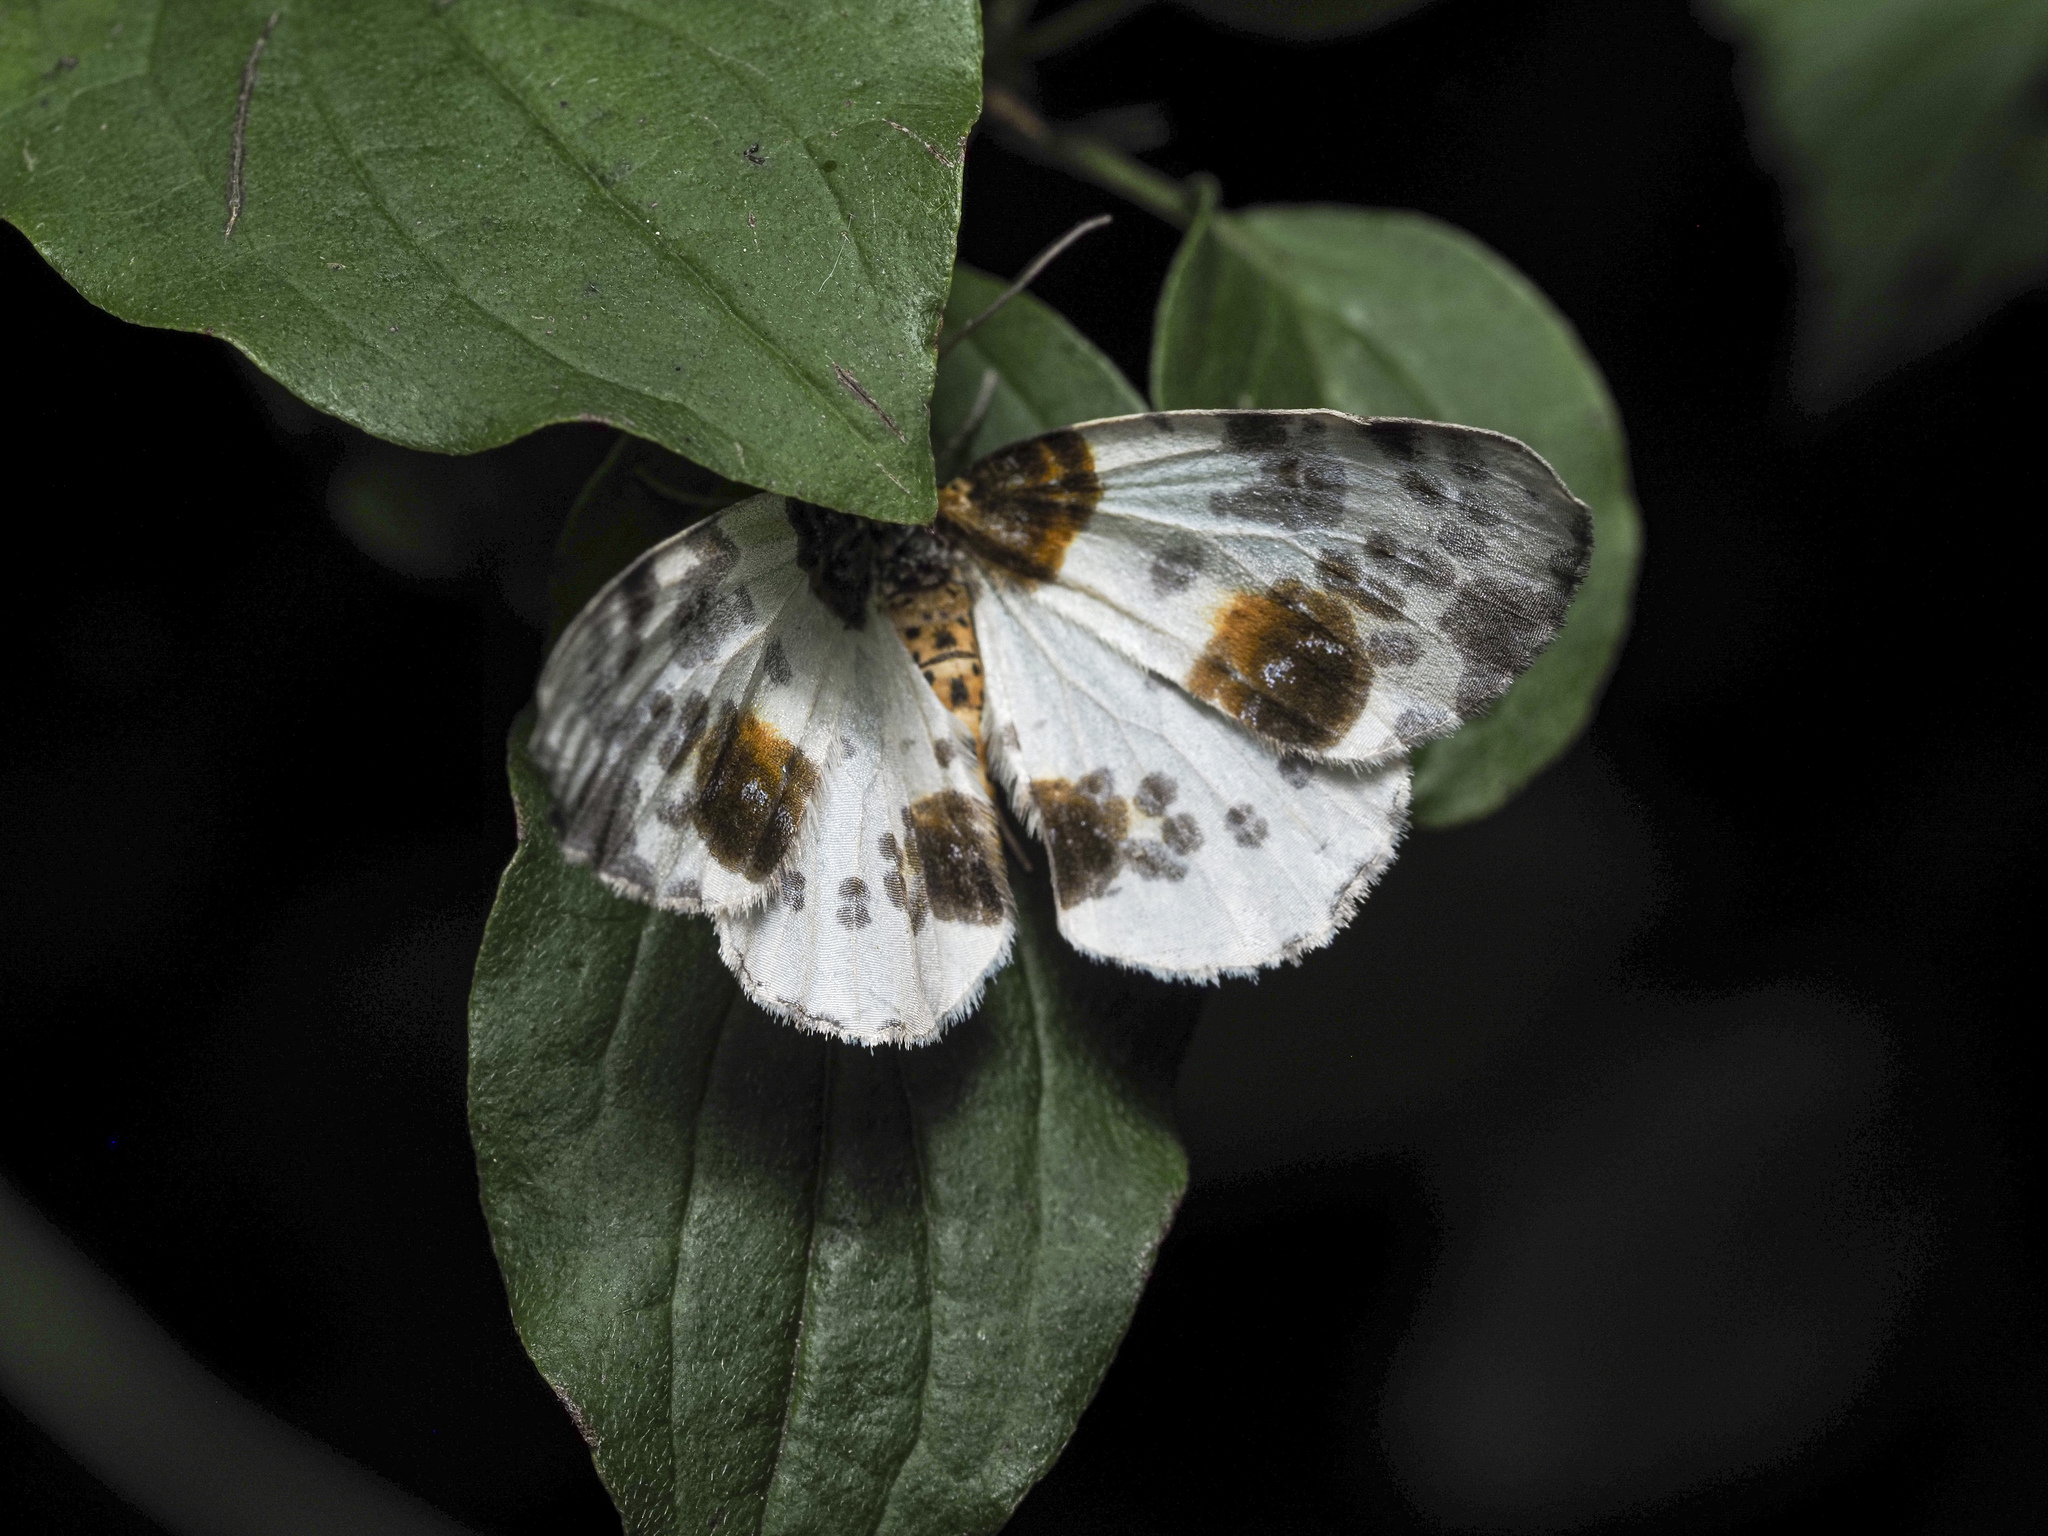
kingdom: Animalia
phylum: Arthropoda
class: Insecta
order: Lepidoptera
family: Geometridae
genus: Abraxas
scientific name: Abraxas sylvata
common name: Clouded magpie
